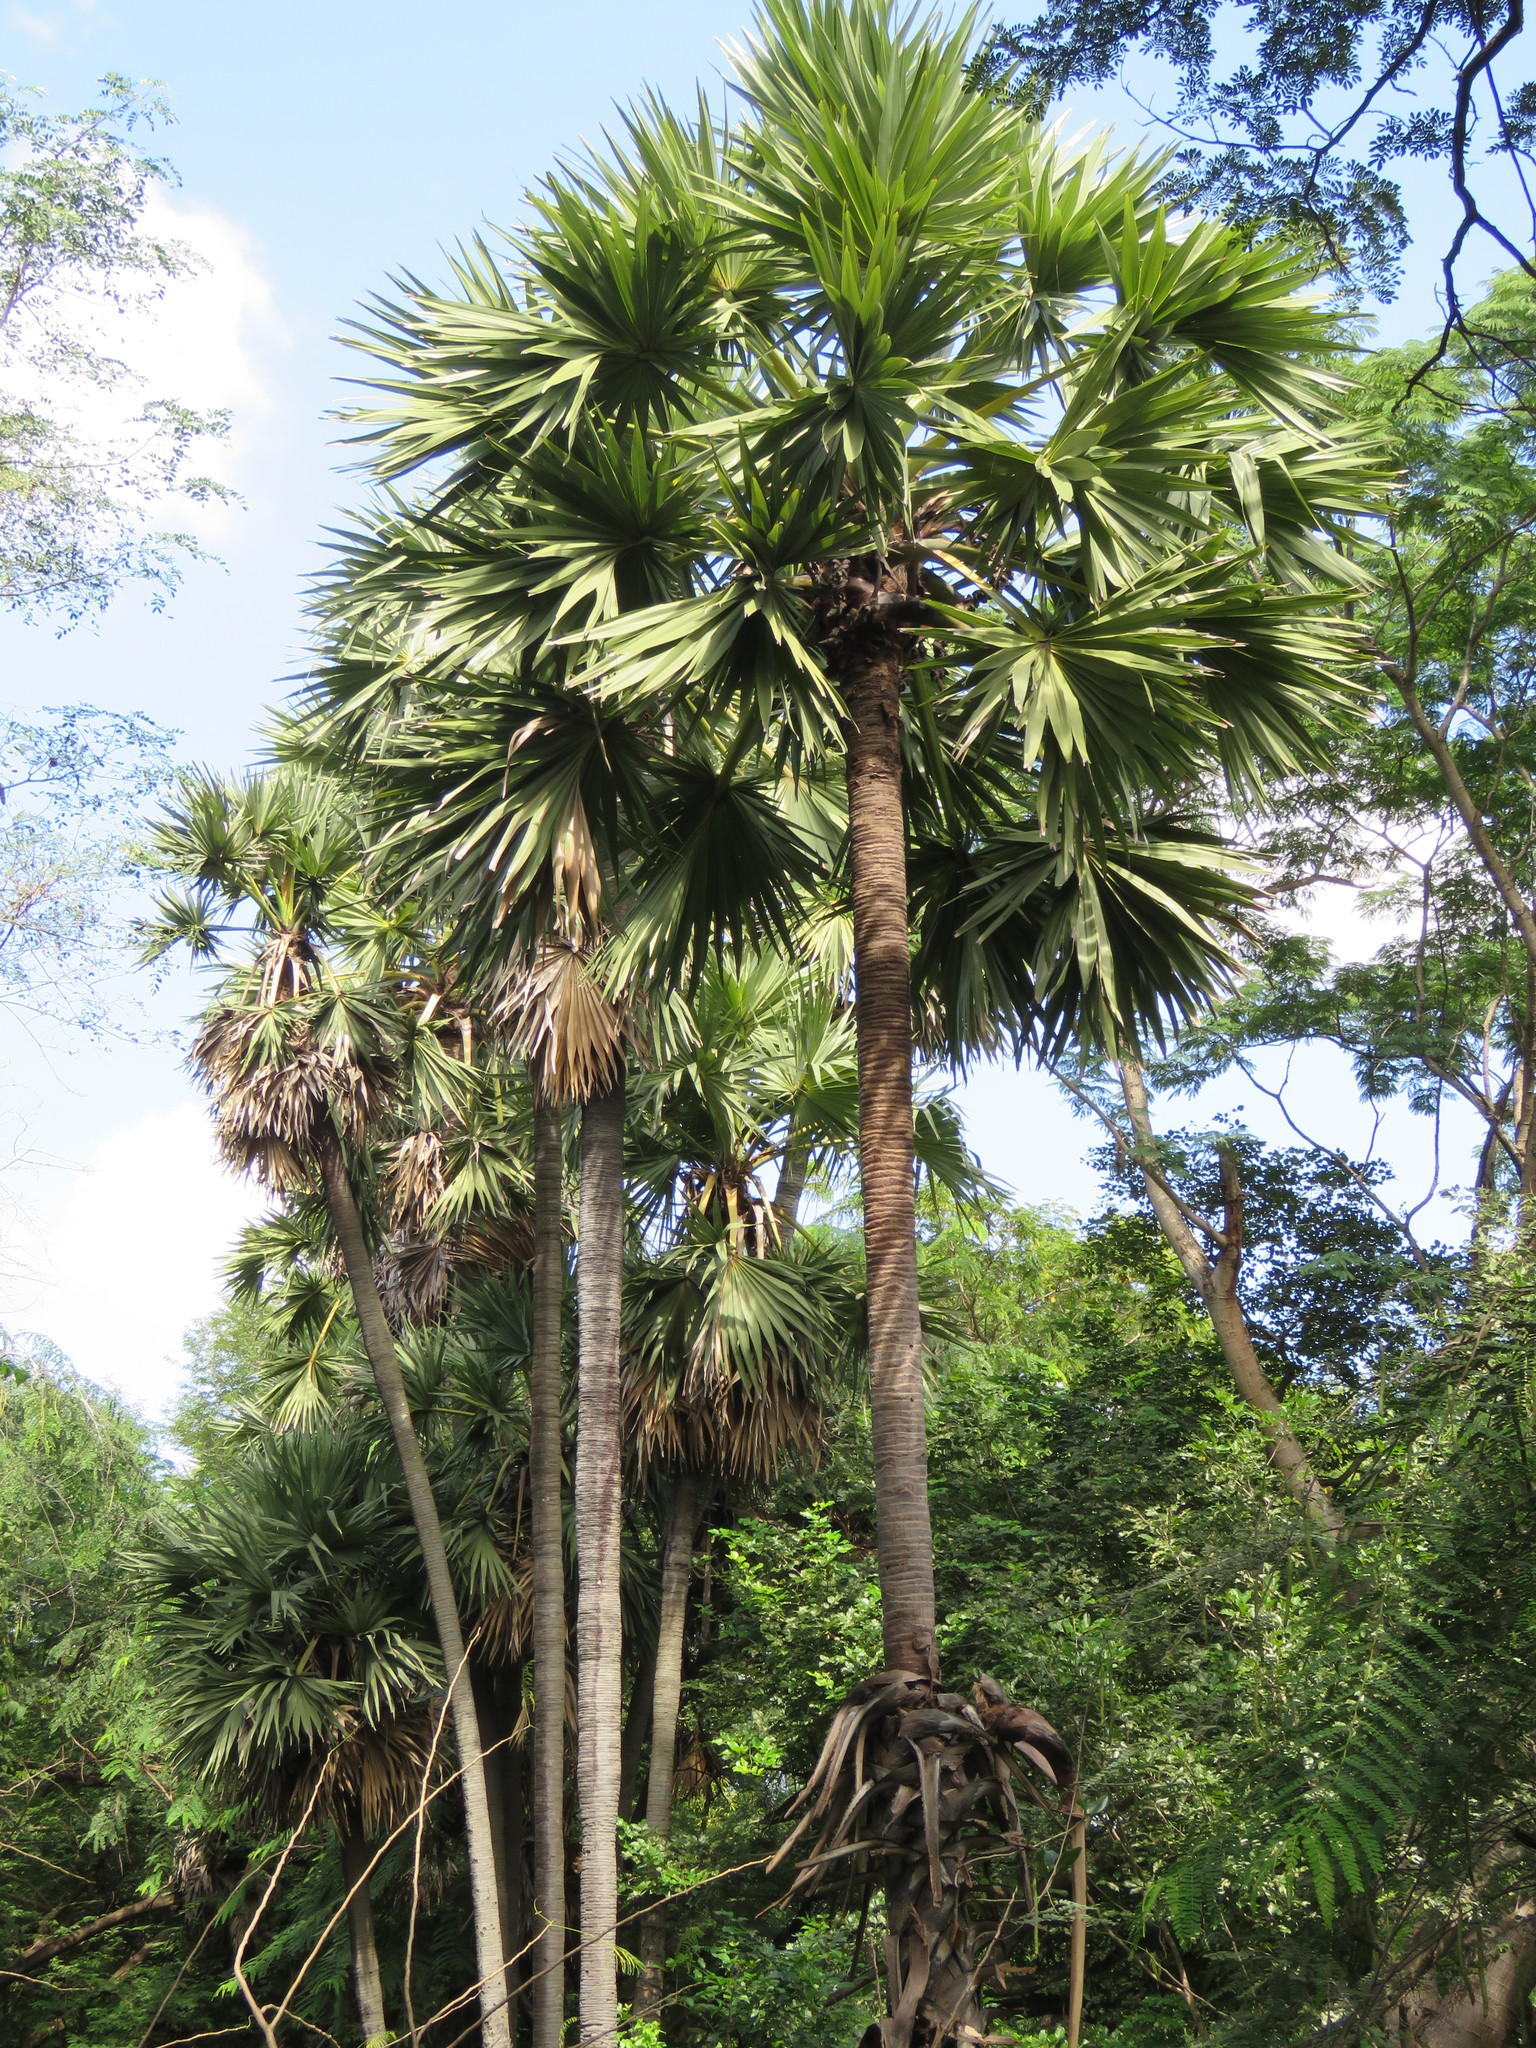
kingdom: Plantae
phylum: Tracheophyta
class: Liliopsida
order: Arecales
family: Arecaceae
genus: Borassus
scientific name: Borassus flabellifer
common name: Palmyra palm
